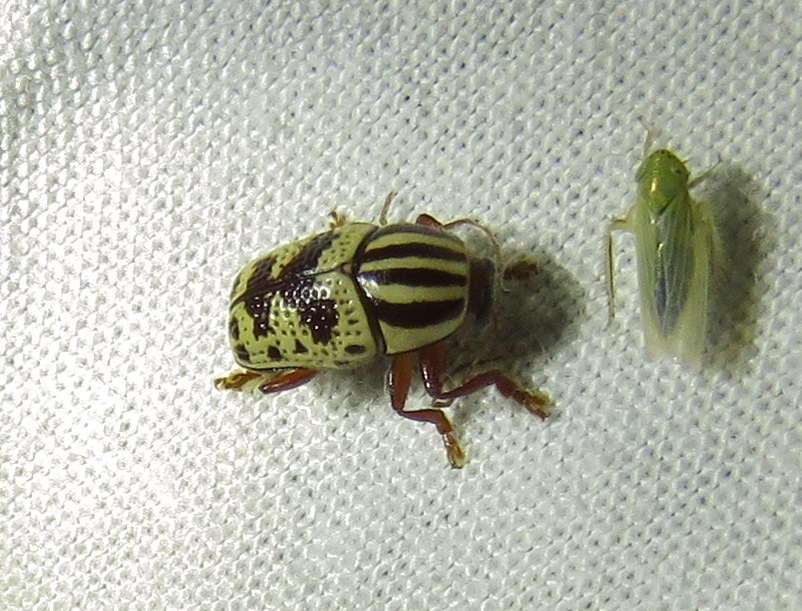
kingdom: Animalia
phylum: Arthropoda
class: Insecta
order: Coleoptera
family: Chrysomelidae
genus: Cryptocephalus
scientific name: Cryptocephalus leucomelas
